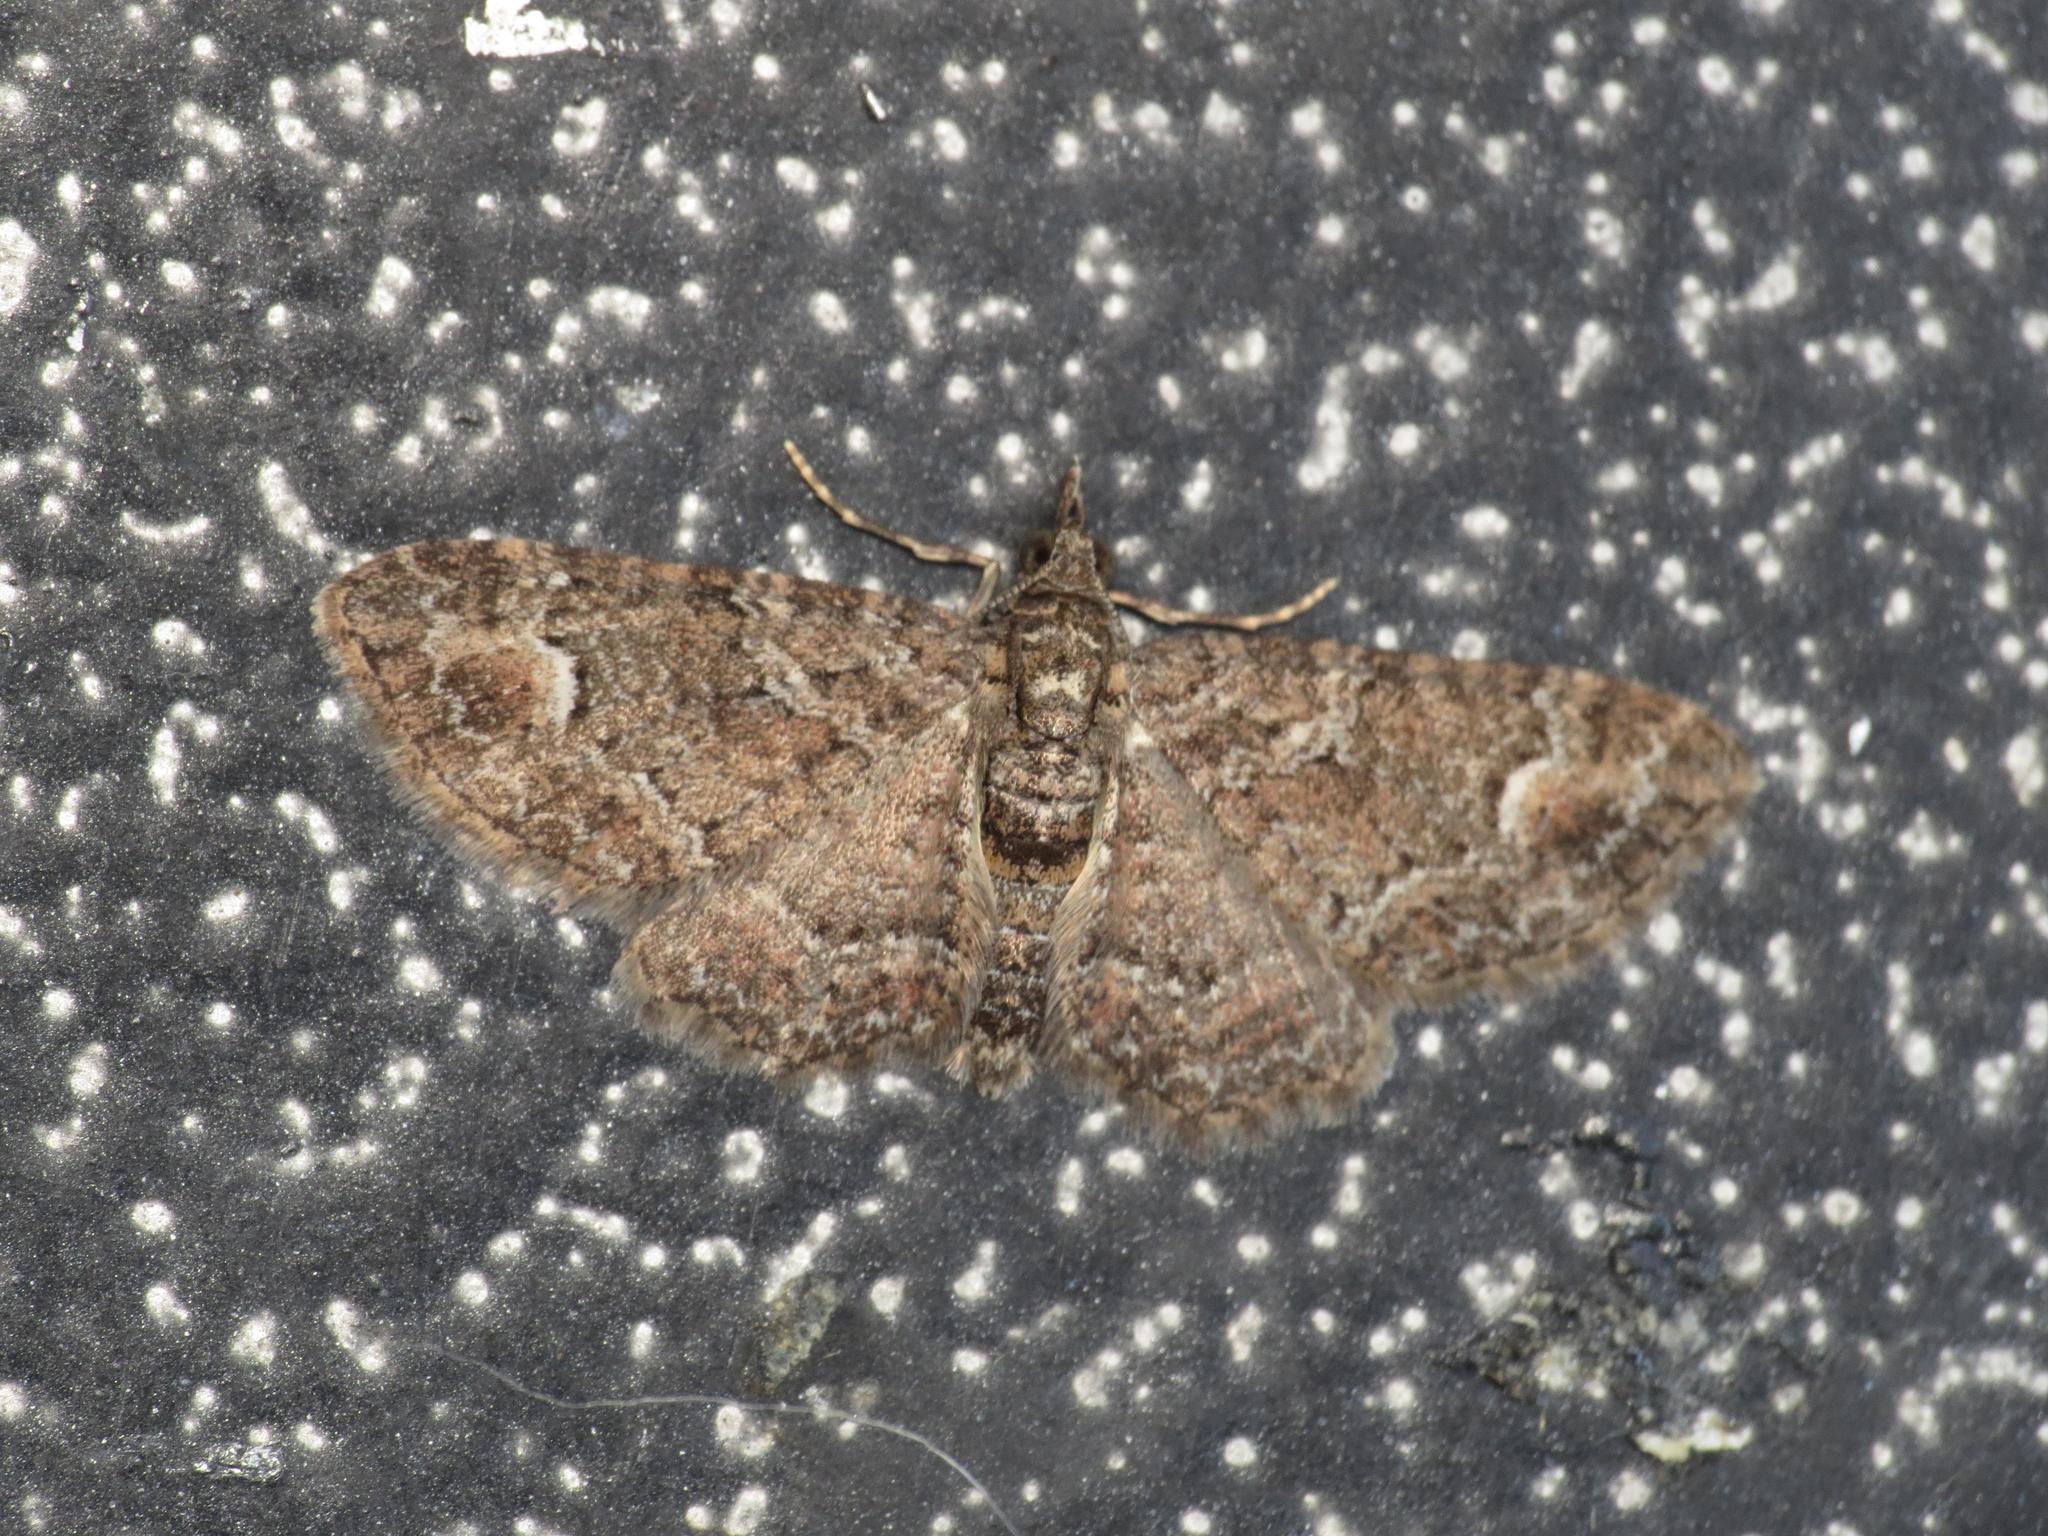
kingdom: Animalia
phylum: Arthropoda
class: Insecta
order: Lepidoptera
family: Geometridae
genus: Pasiphilodes
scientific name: Pasiphilodes testulata
